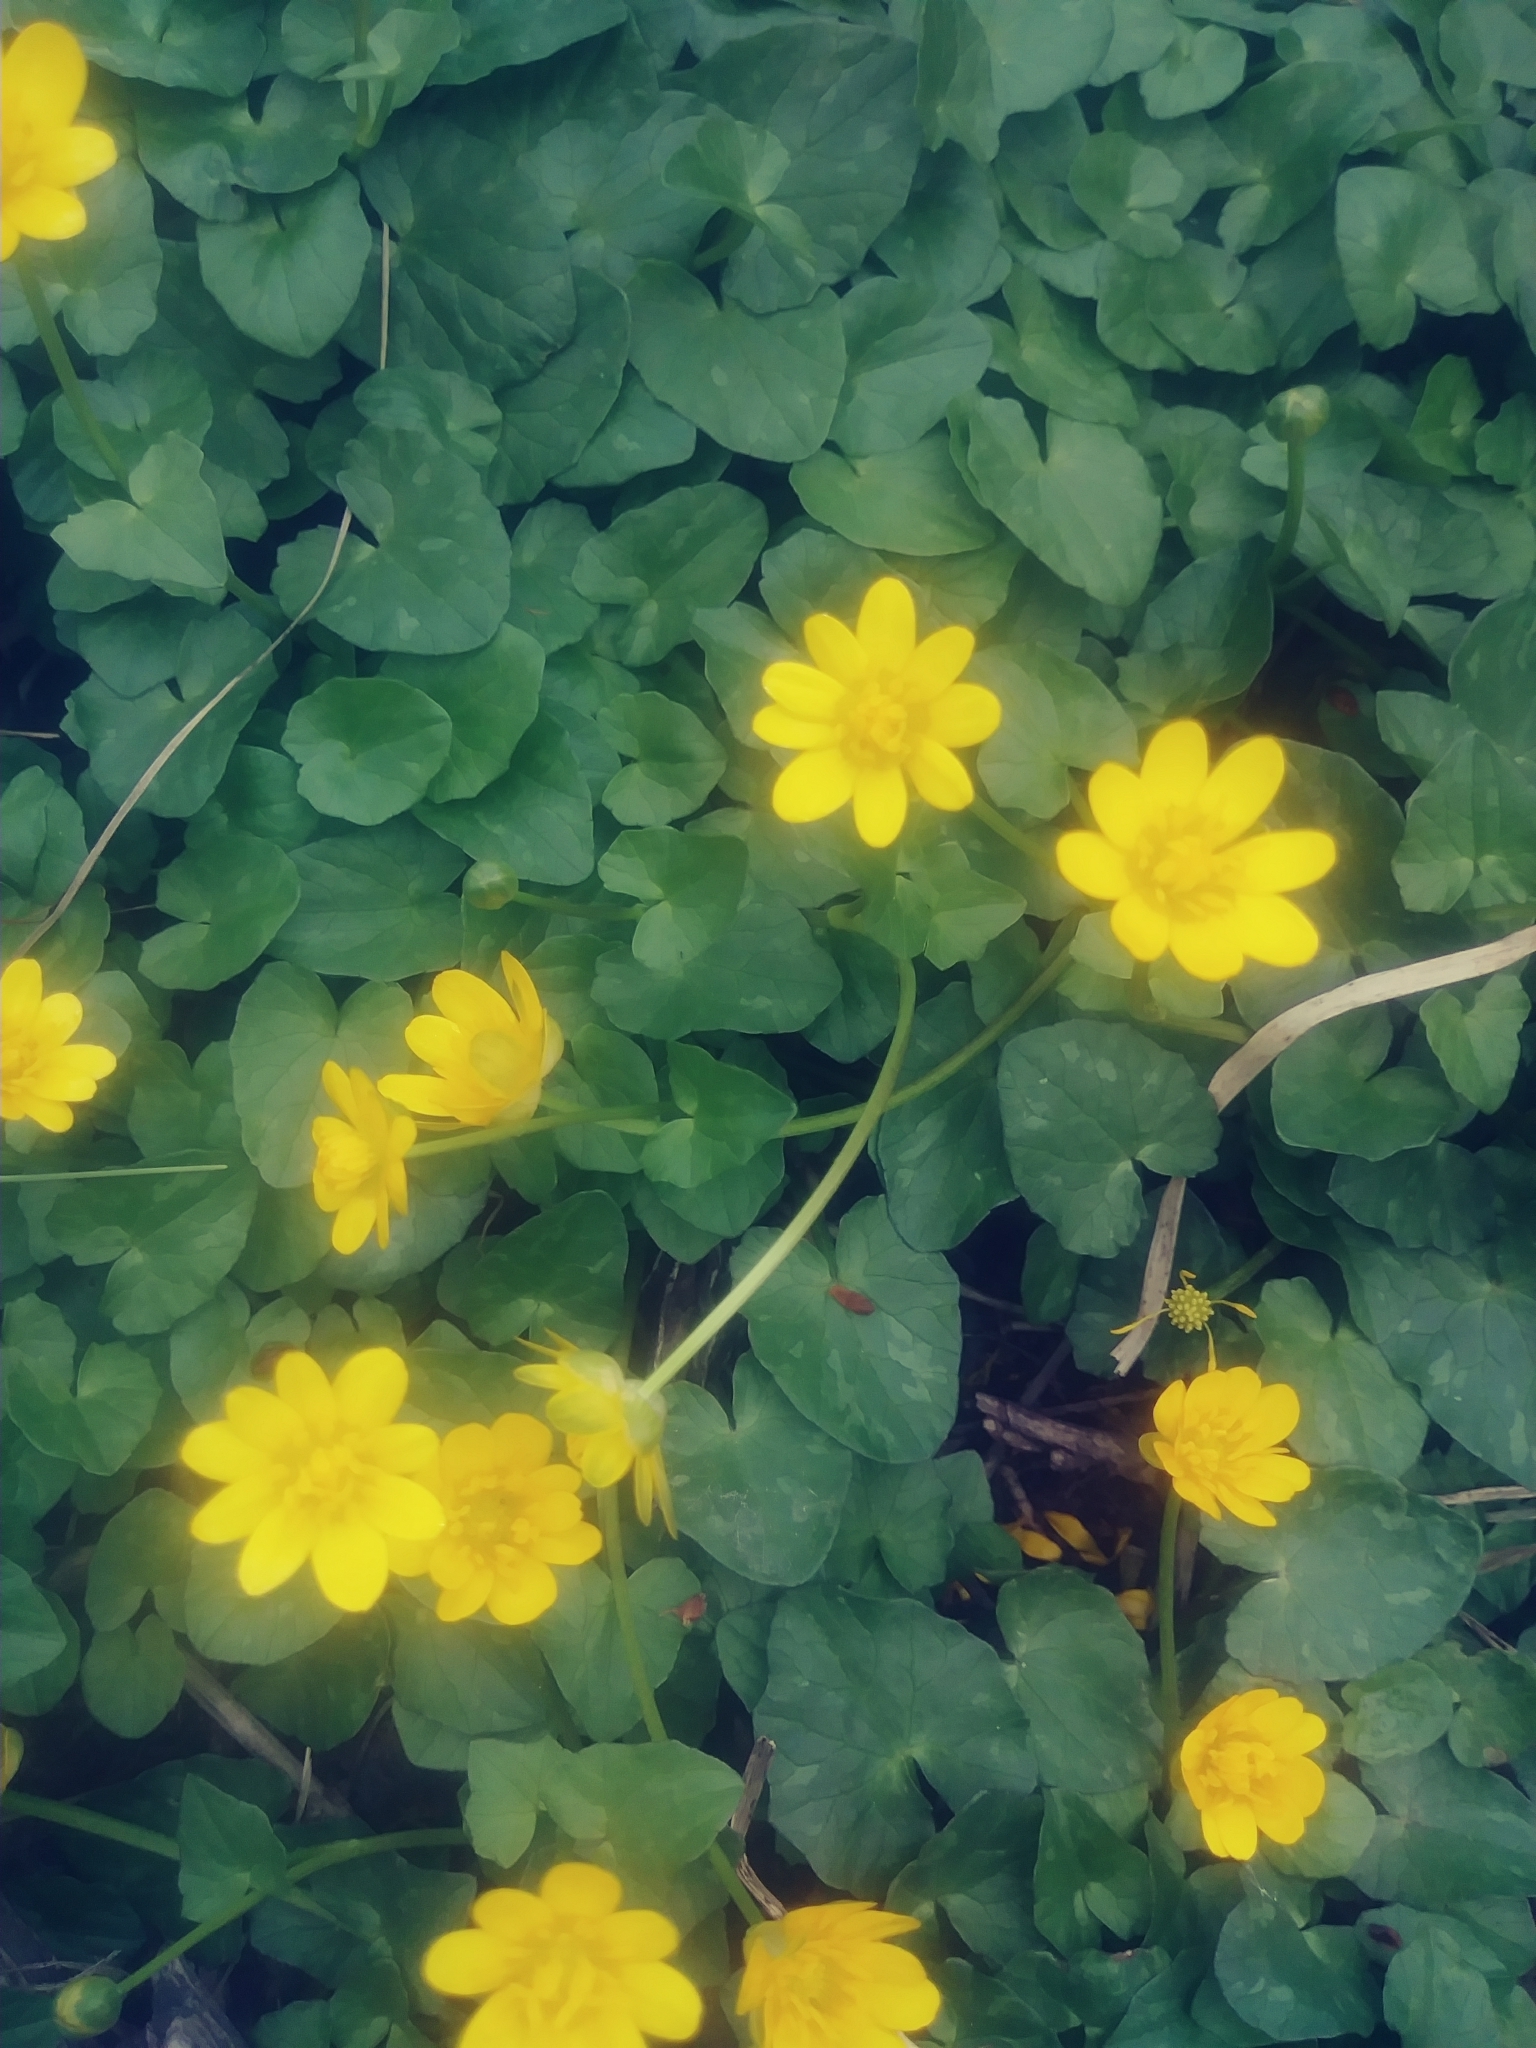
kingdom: Plantae
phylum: Tracheophyta
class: Magnoliopsida
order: Ranunculales
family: Ranunculaceae
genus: Ficaria
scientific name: Ficaria verna
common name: Lesser celandine
